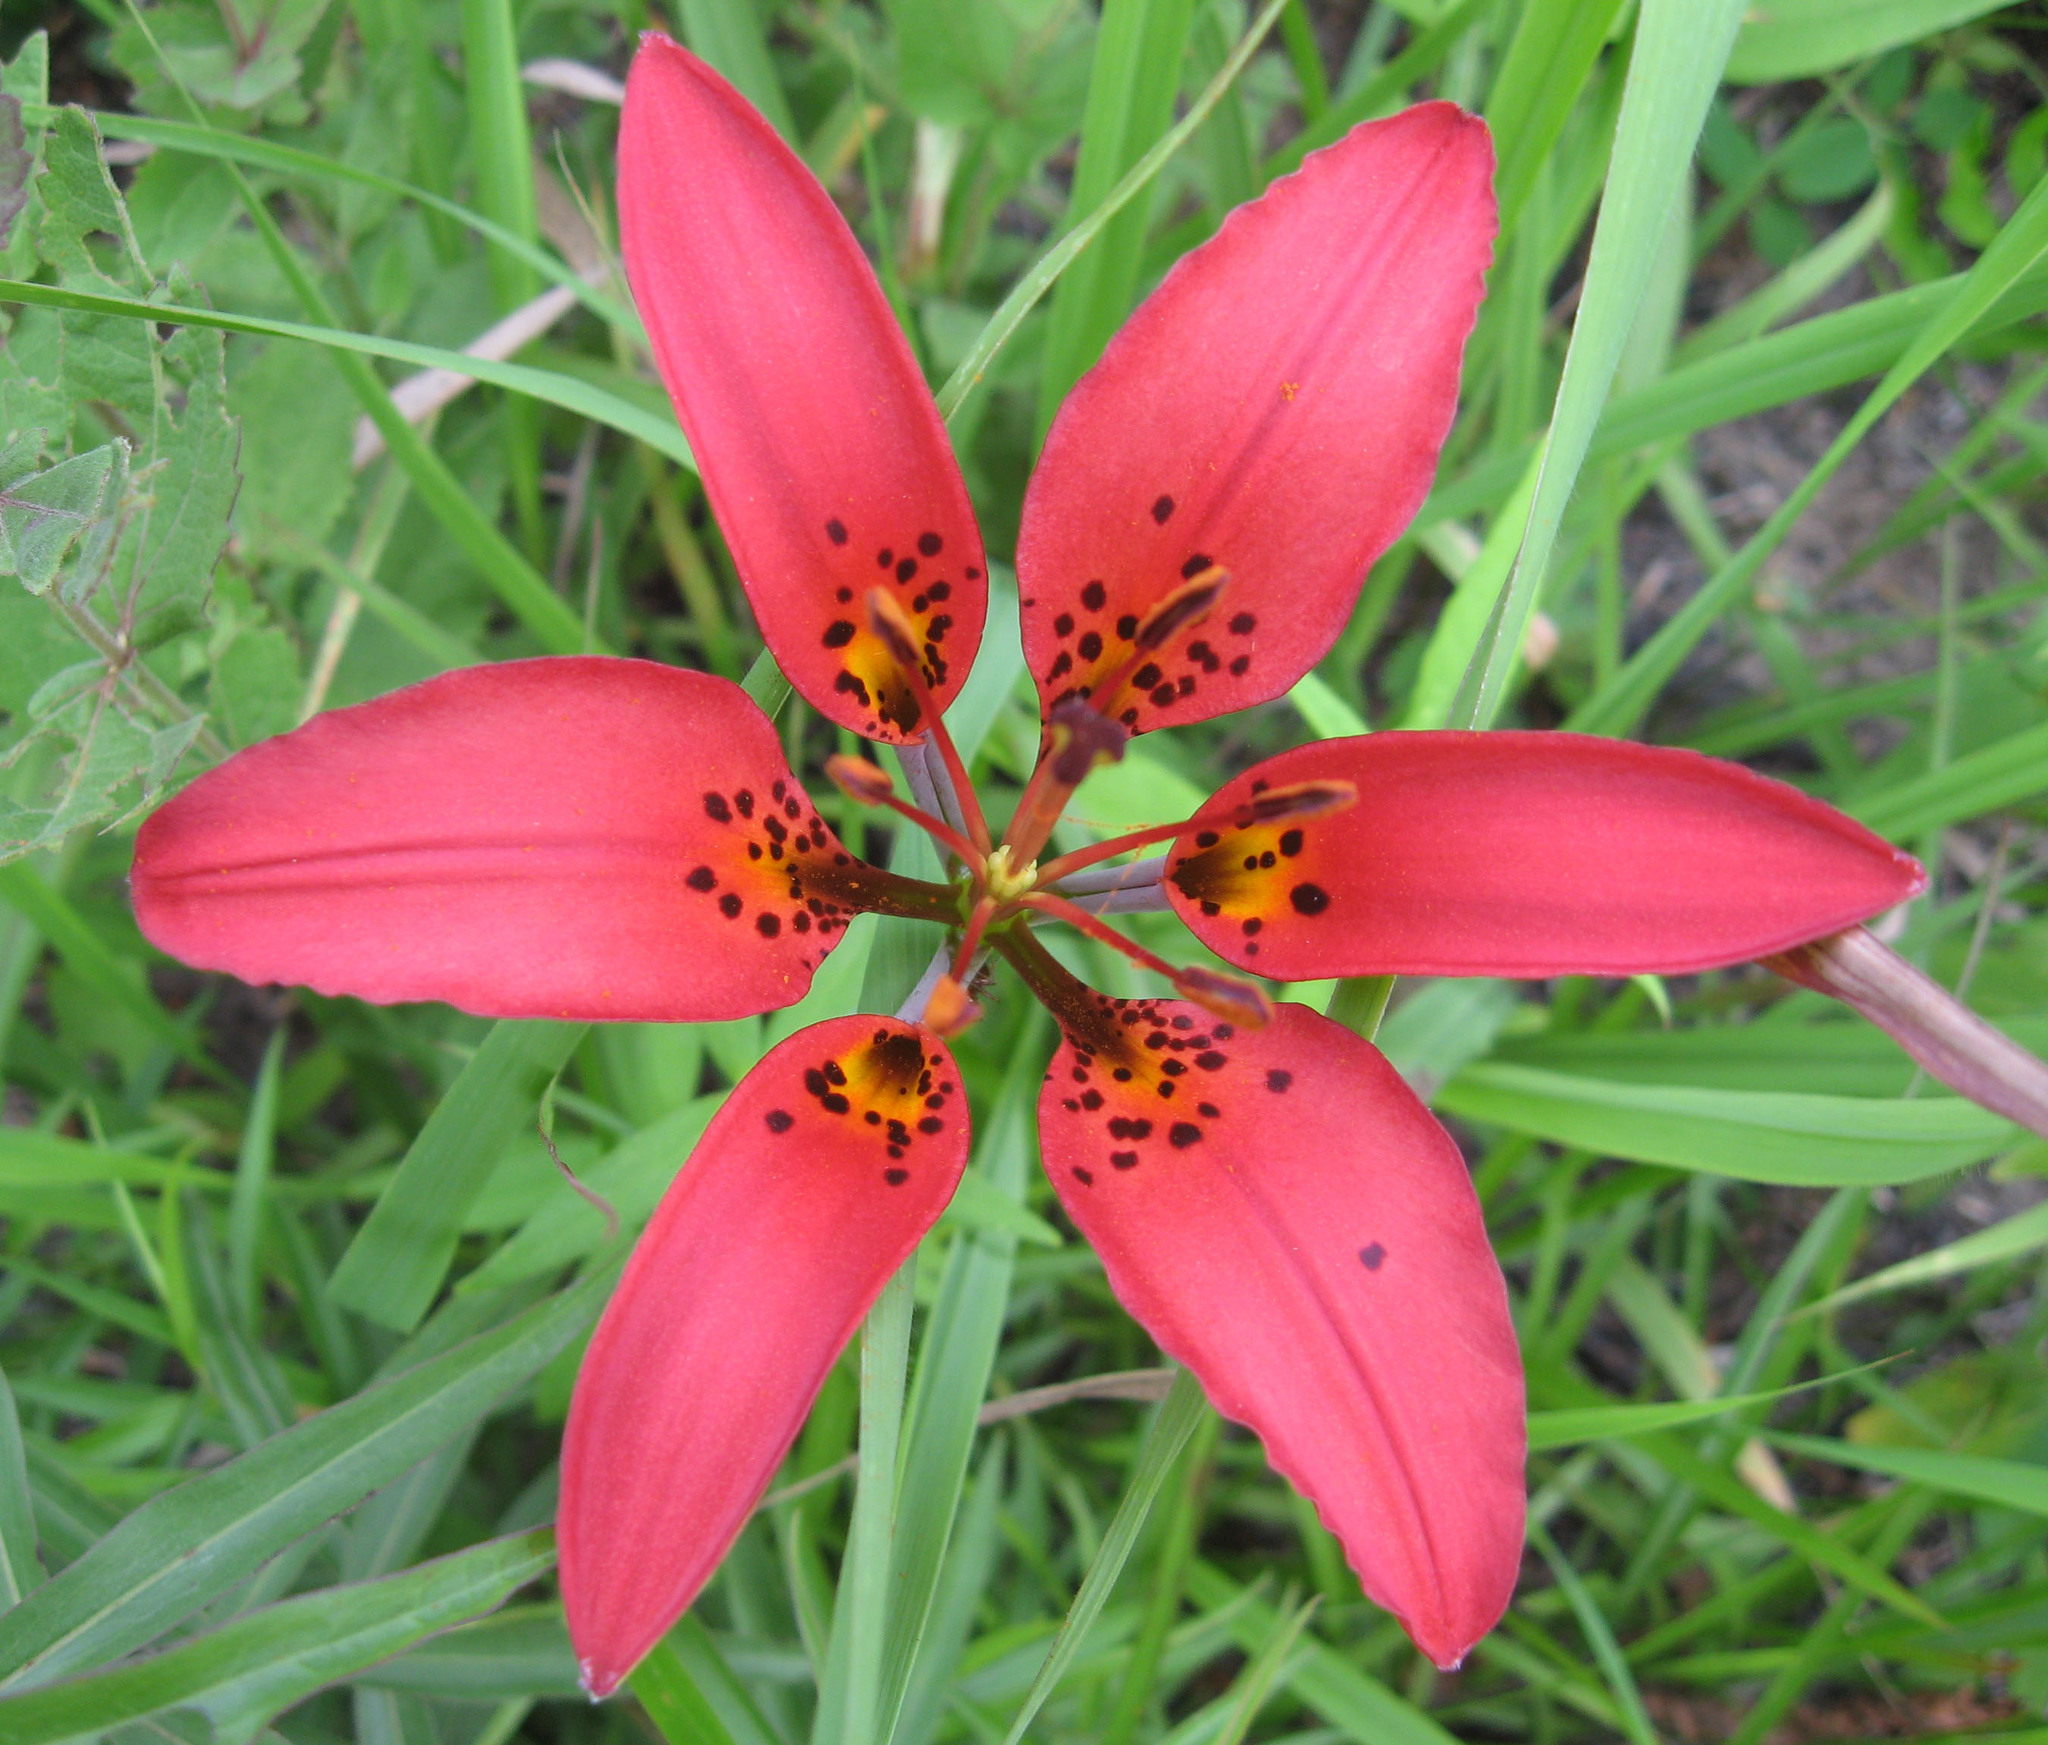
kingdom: Plantae
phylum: Tracheophyta
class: Liliopsida
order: Liliales
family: Liliaceae
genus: Lilium
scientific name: Lilium philadelphicum
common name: Red lily
